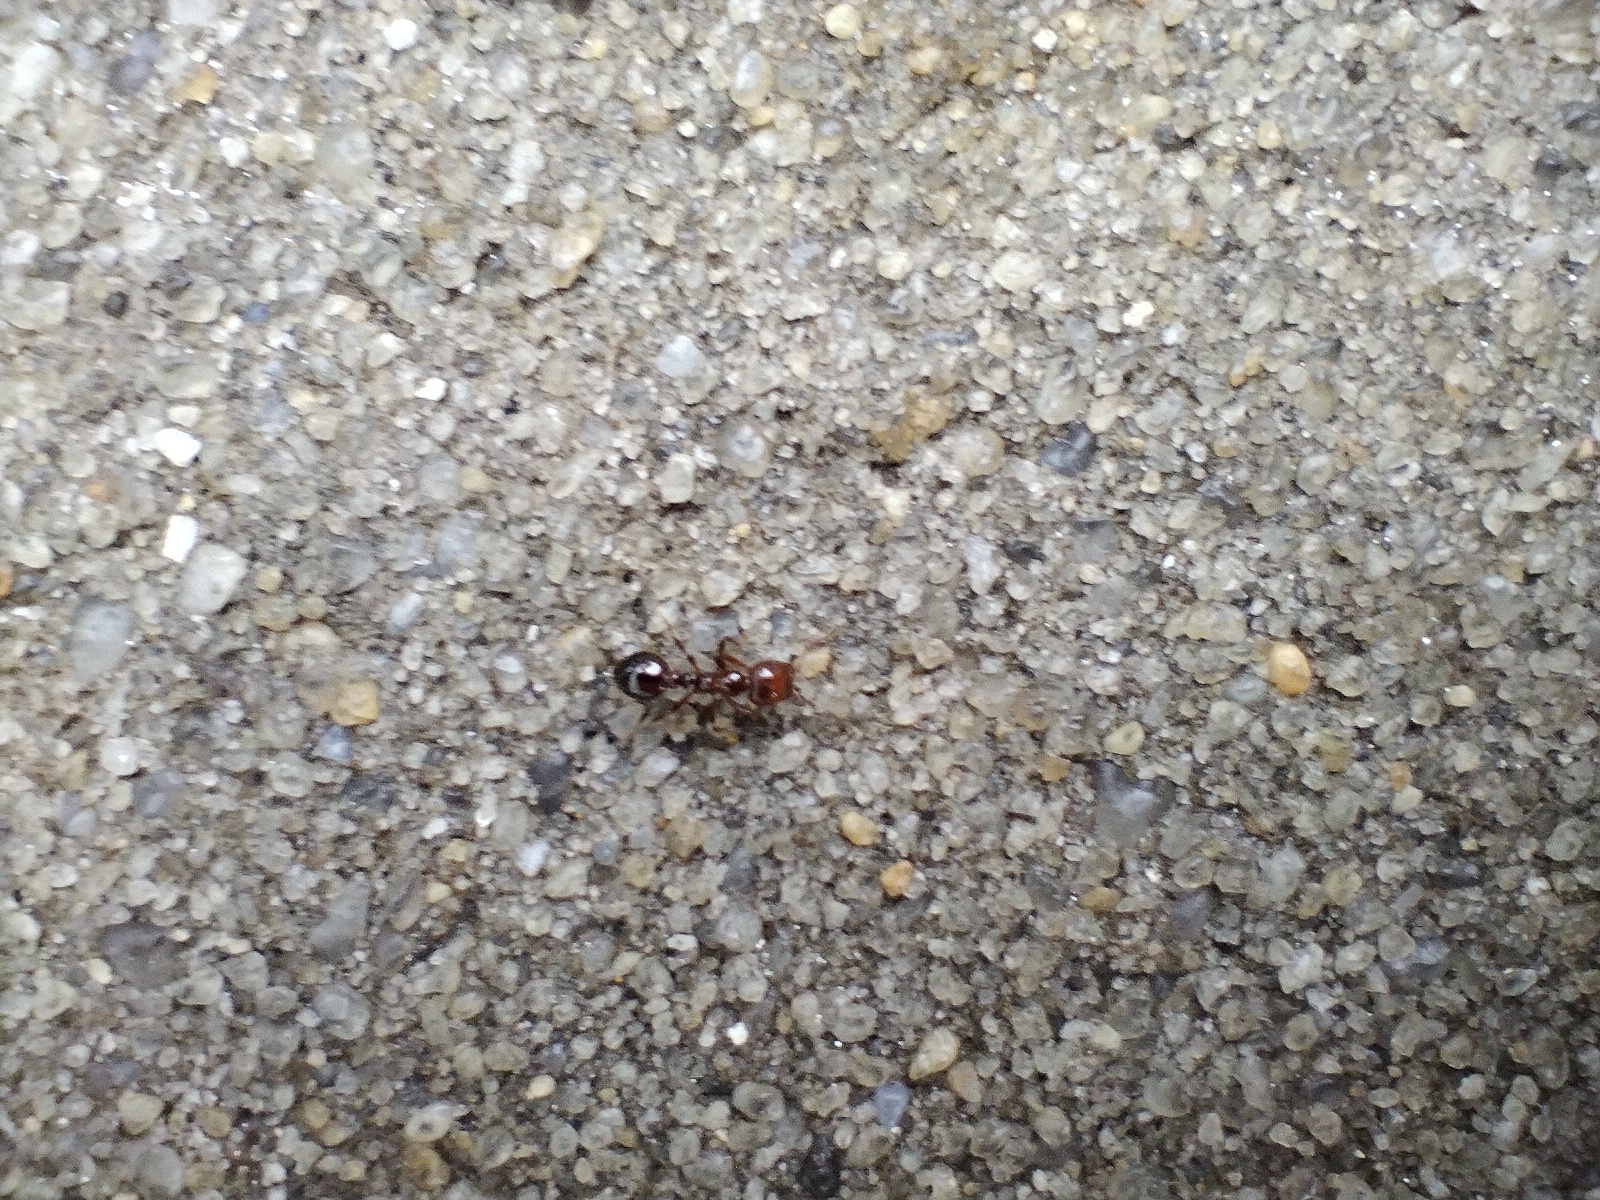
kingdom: Animalia
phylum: Arthropoda
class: Insecta
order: Hymenoptera
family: Formicidae
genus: Solenopsis
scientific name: Solenopsis invicta
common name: Red imported fire ant
